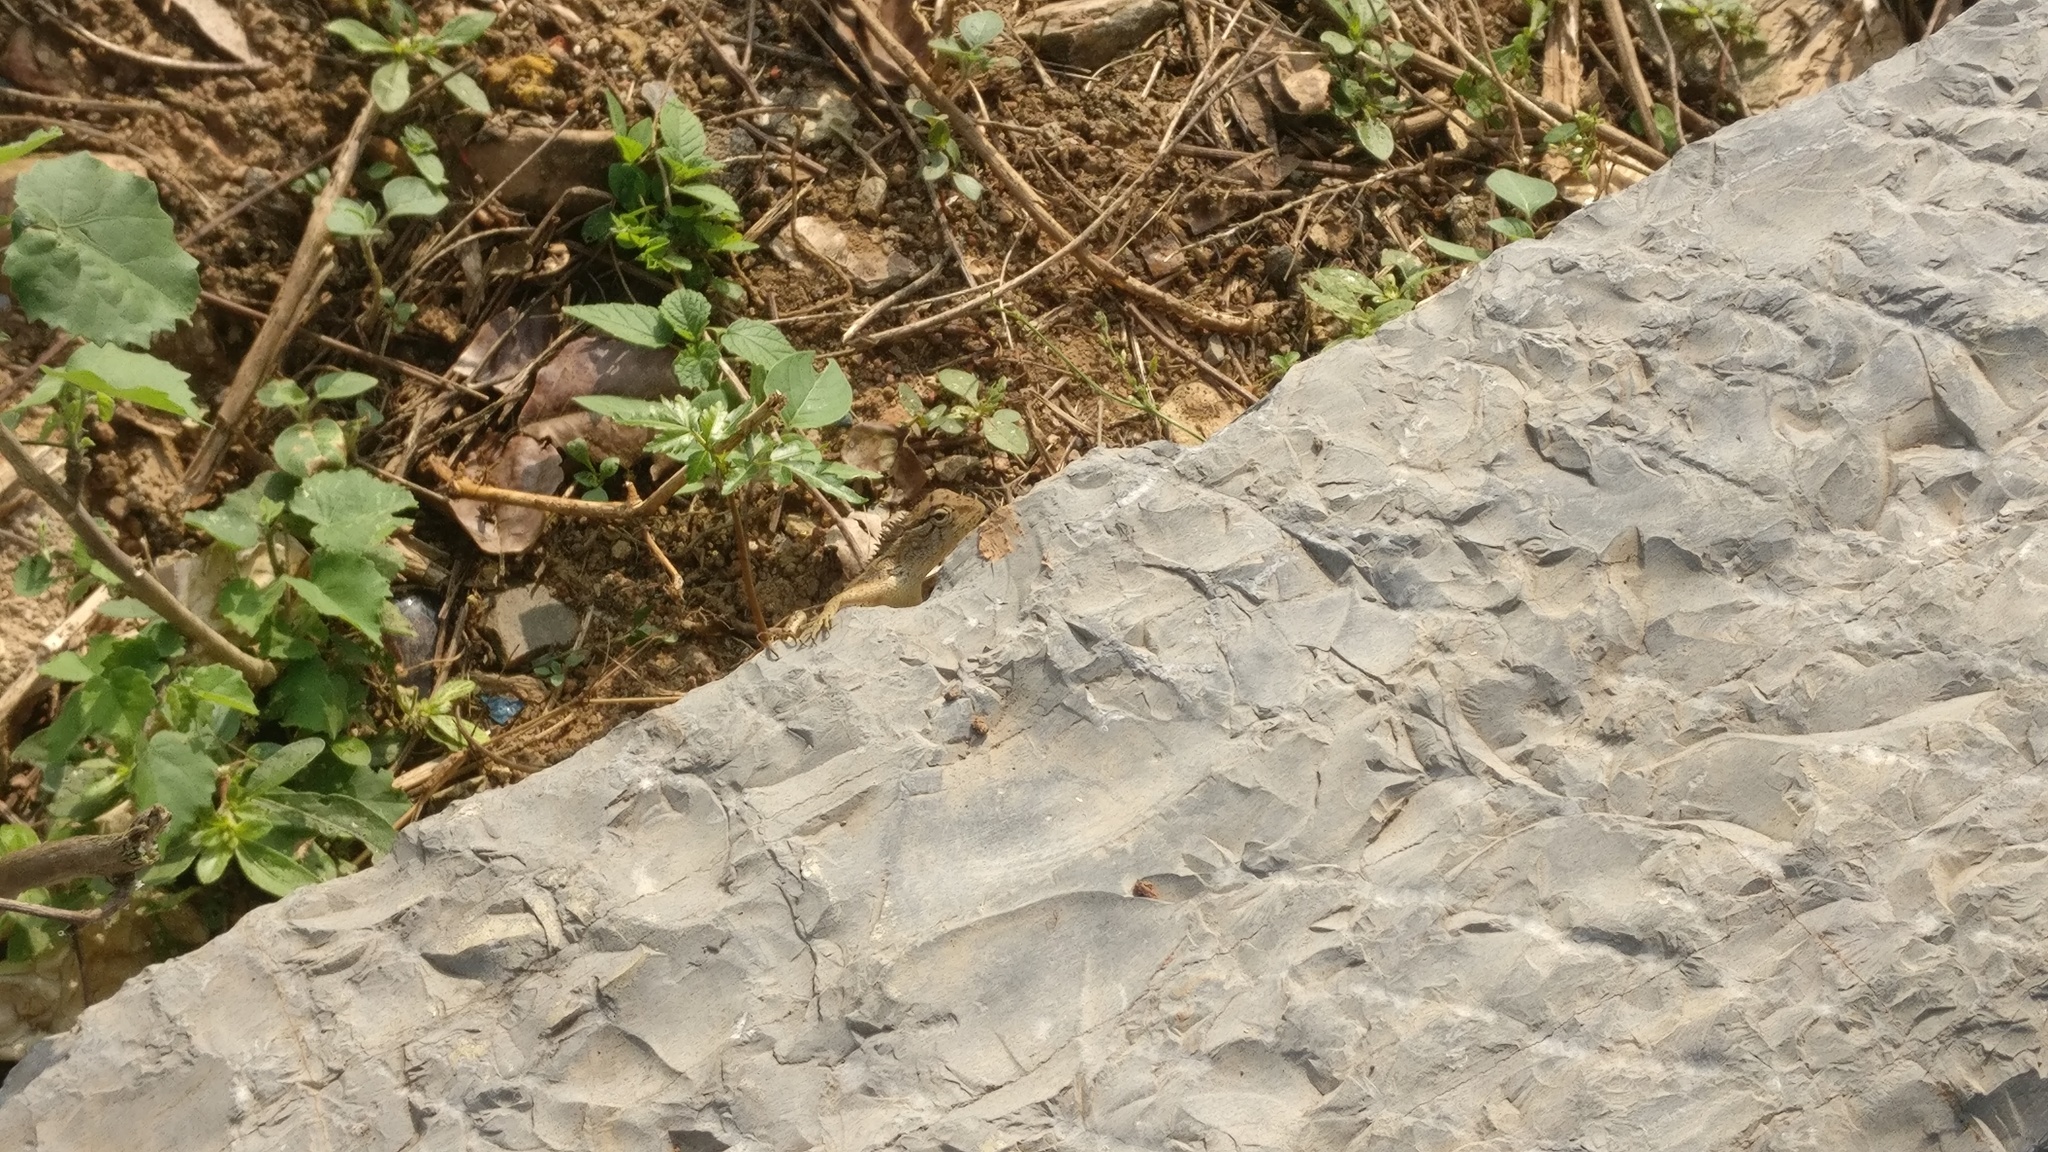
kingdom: Animalia
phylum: Chordata
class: Squamata
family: Agamidae
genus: Calotes
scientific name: Calotes versicolor
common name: Oriental garden lizard
